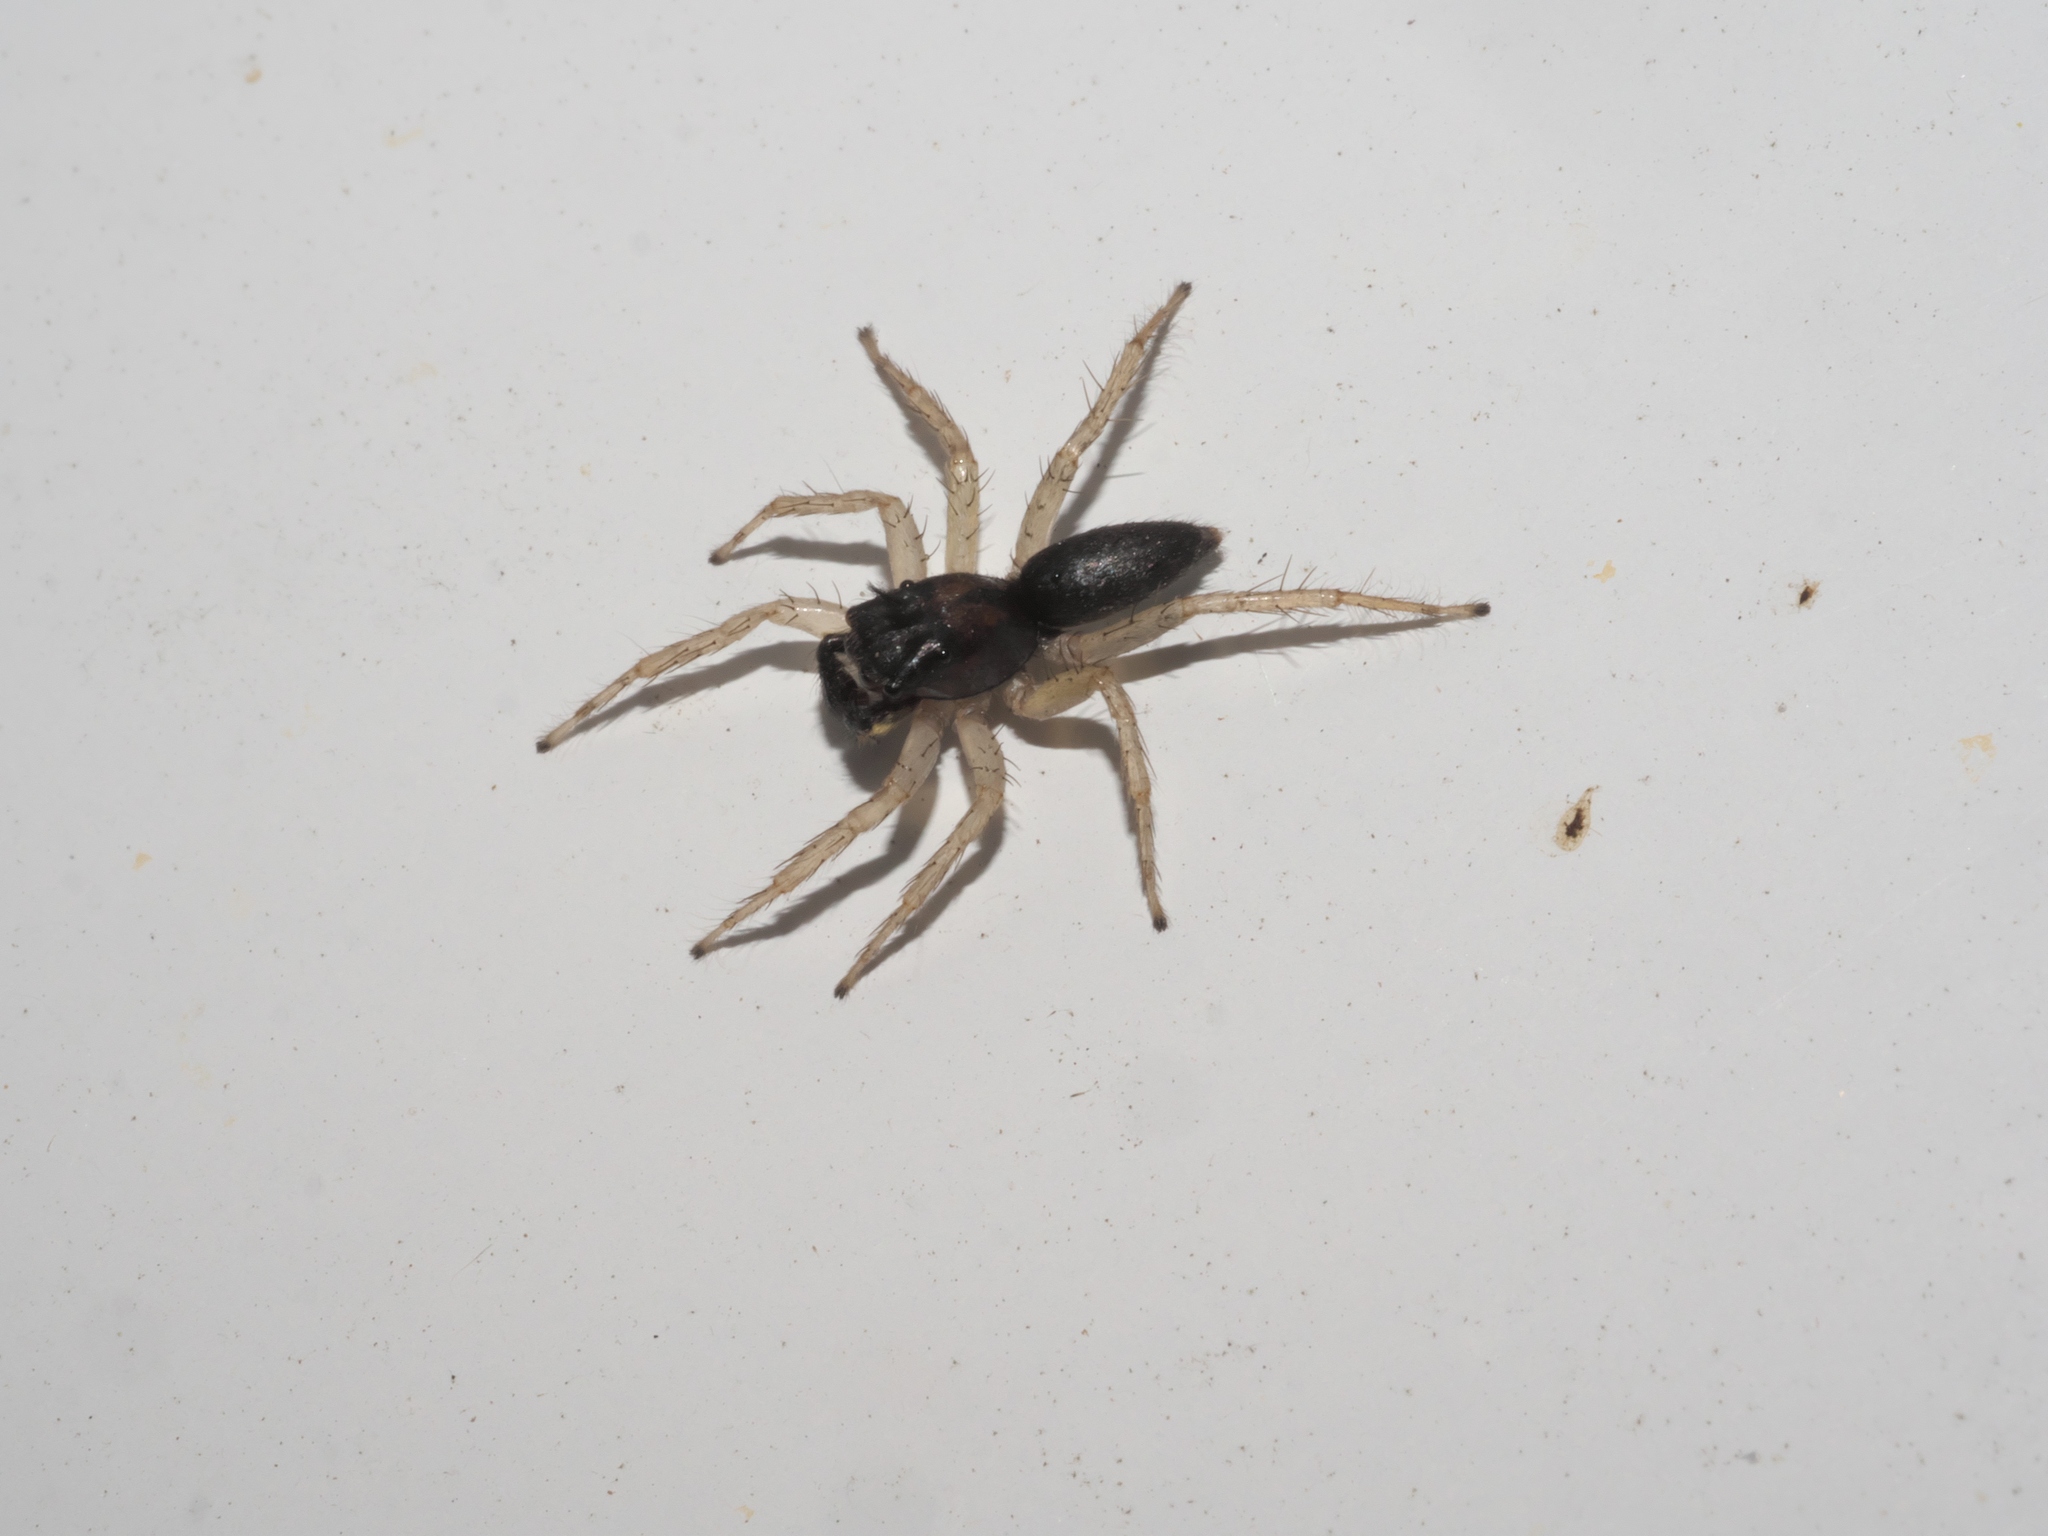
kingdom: Animalia
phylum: Arthropoda
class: Arachnida
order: Araneae
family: Salticidae
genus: Maevia
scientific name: Maevia inclemens
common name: Dimorphic jumper
